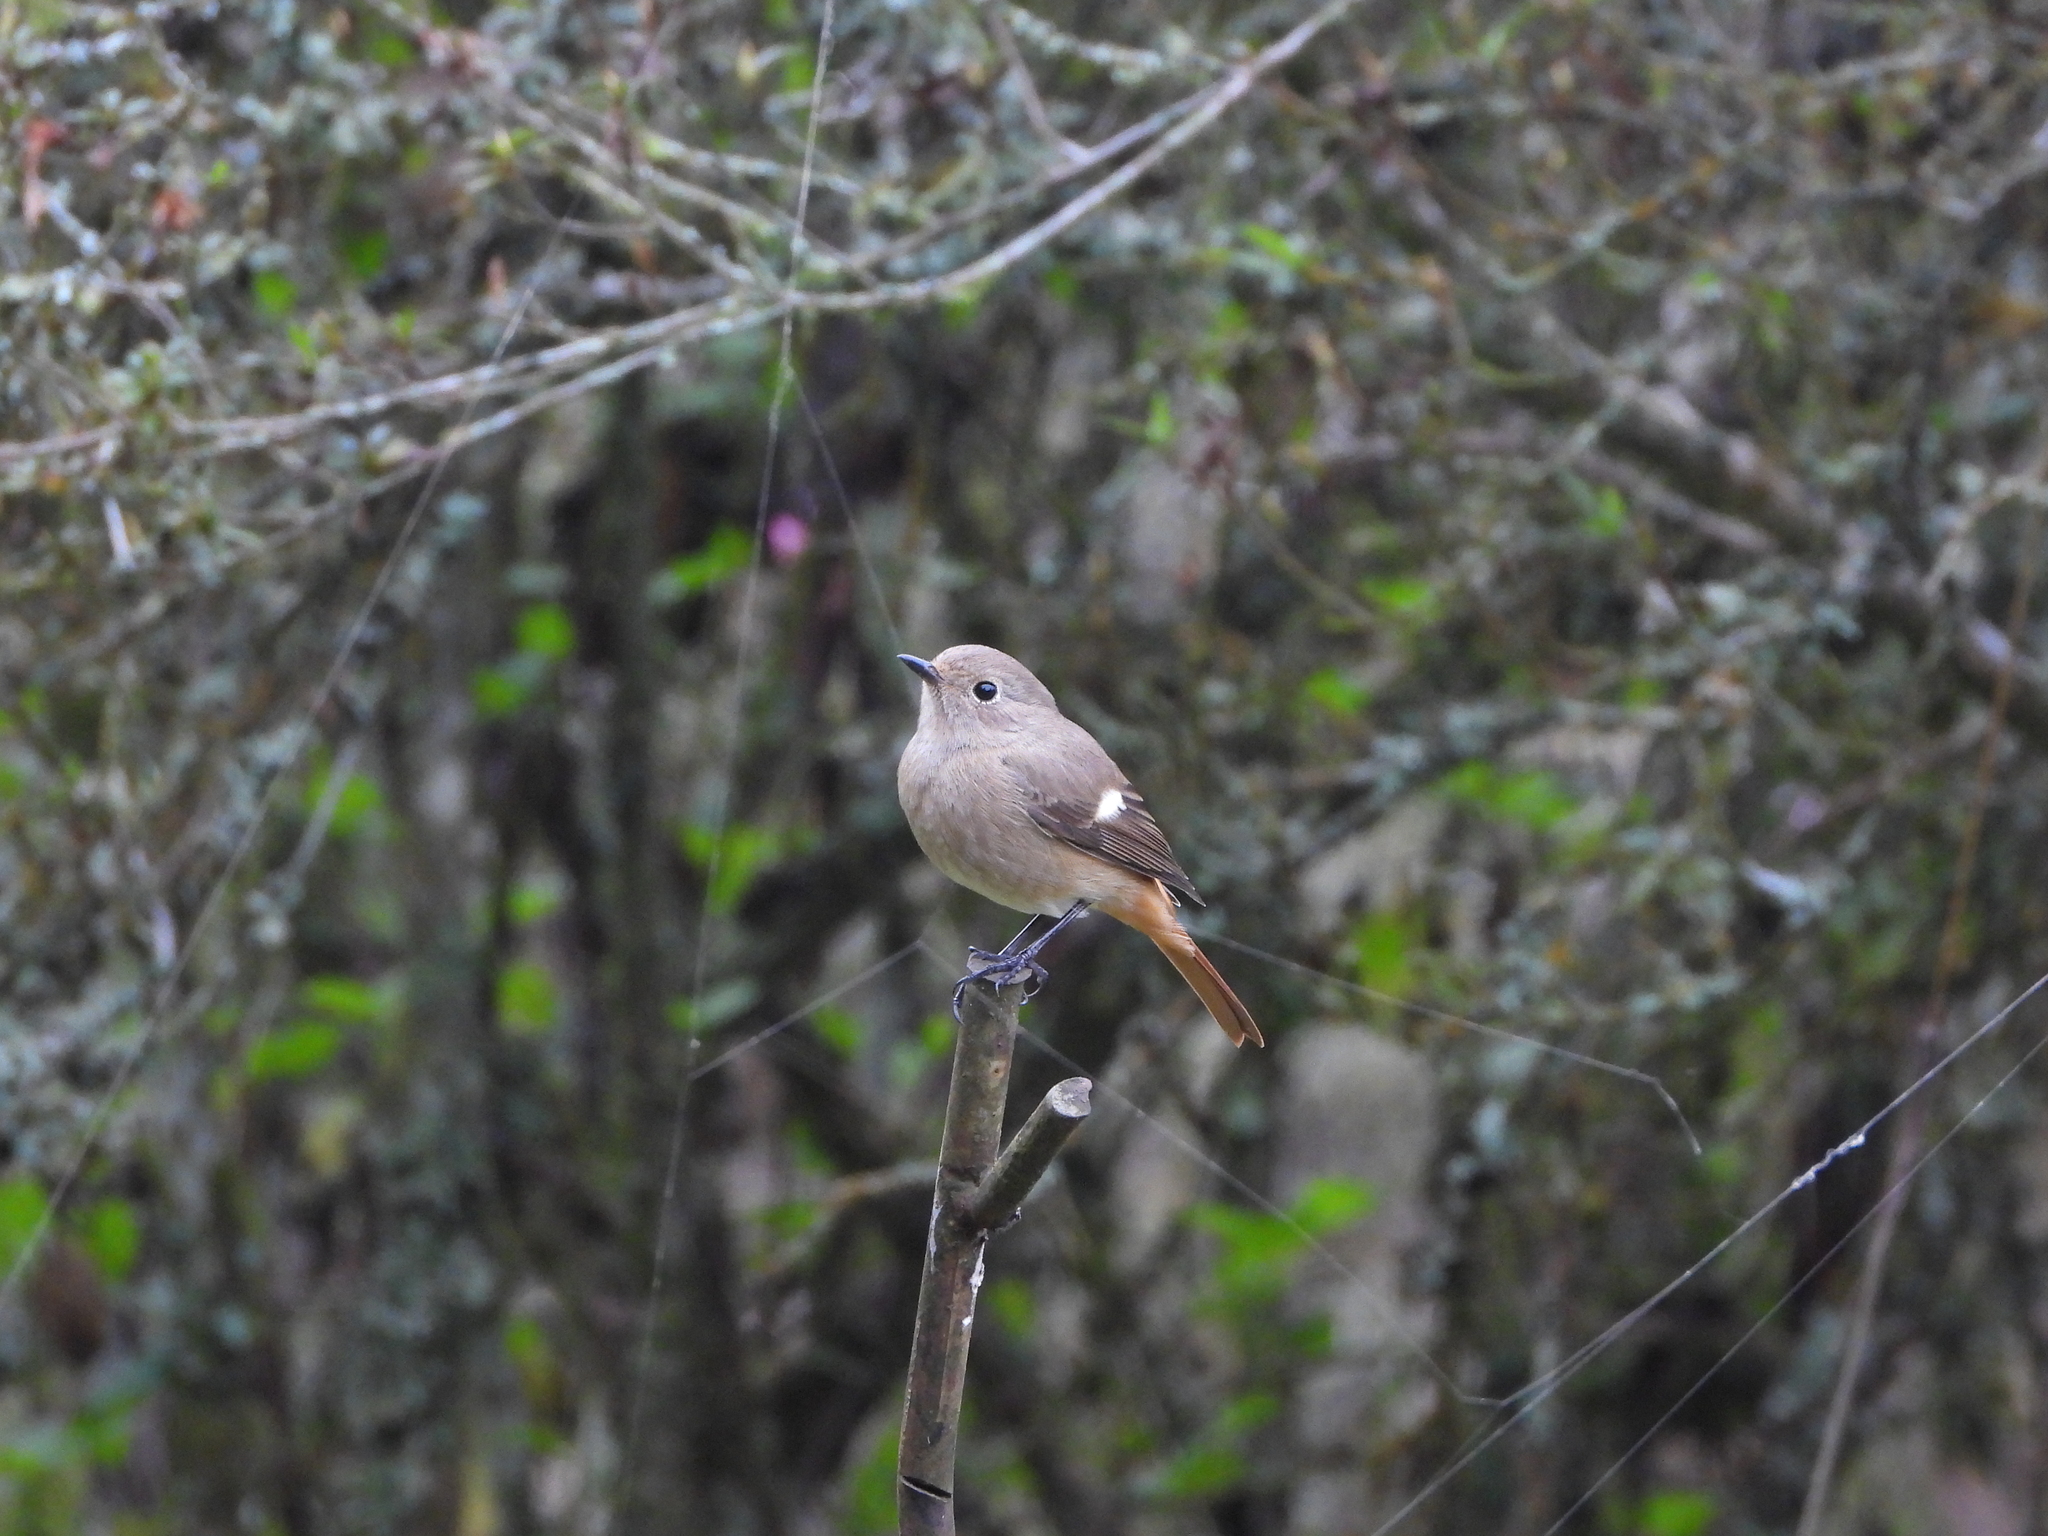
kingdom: Animalia
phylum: Chordata
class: Aves
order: Passeriformes
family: Muscicapidae
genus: Phoenicurus
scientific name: Phoenicurus auroreus
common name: Daurian redstart
